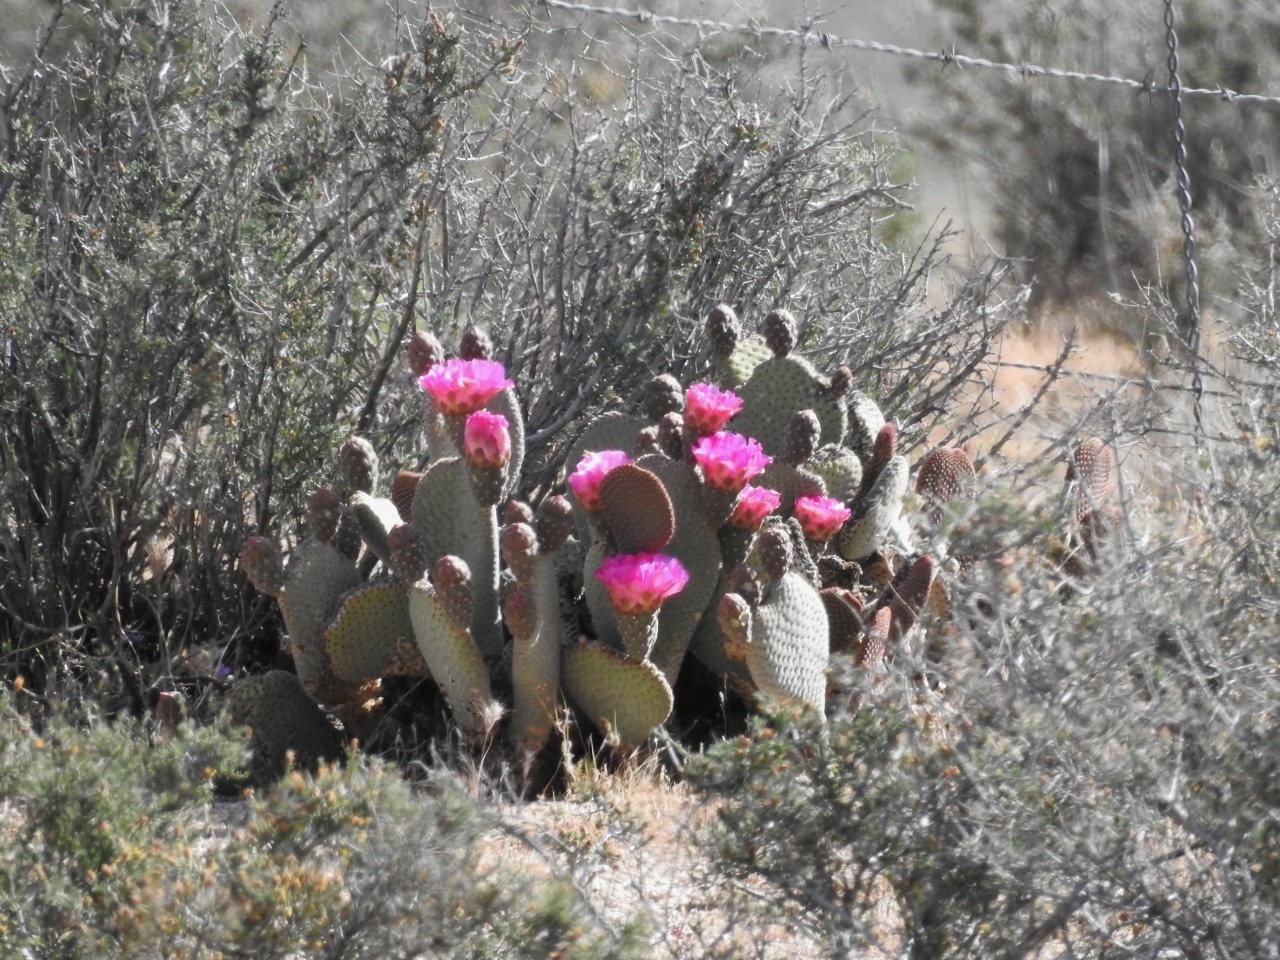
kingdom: Plantae
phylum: Tracheophyta
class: Magnoliopsida
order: Caryophyllales
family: Cactaceae
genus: Opuntia
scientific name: Opuntia basilaris
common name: Beavertail prickly-pear
